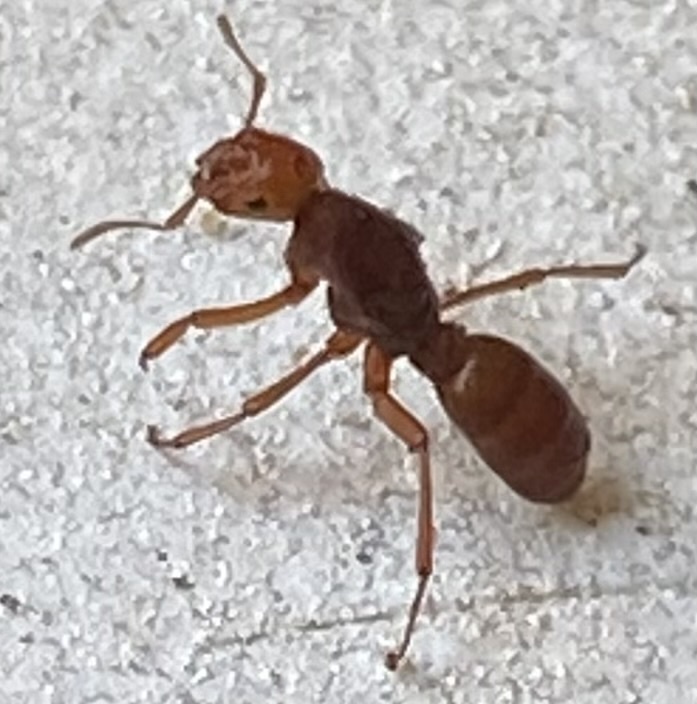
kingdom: Animalia
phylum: Arthropoda
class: Insecta
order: Hymenoptera
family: Formicidae
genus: Acanthomyops
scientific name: Acanthomyops murphyi
